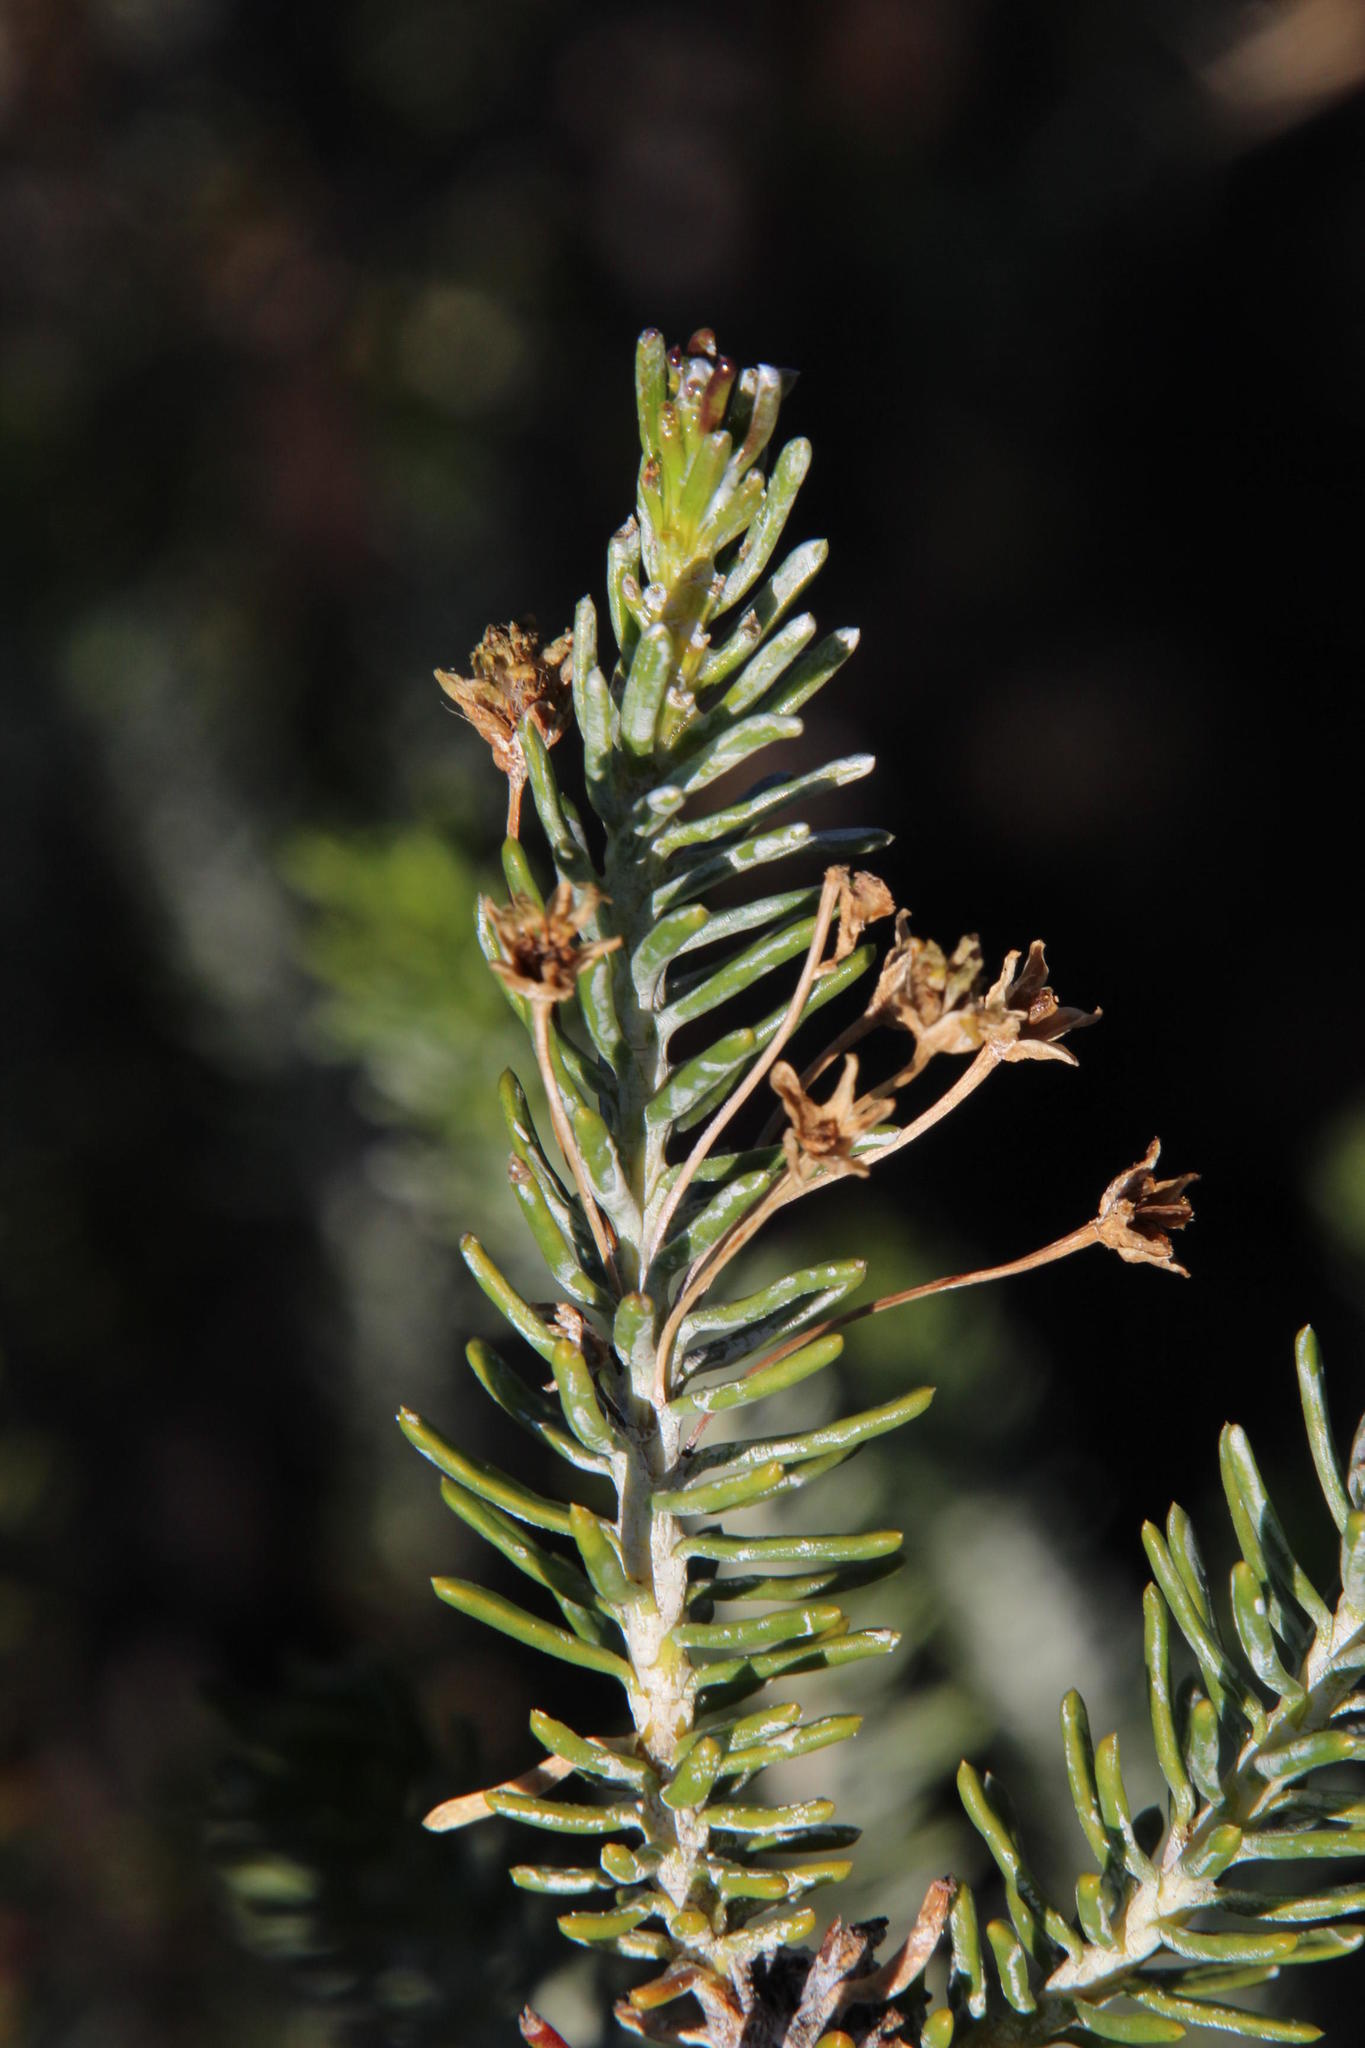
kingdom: Plantae
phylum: Tracheophyta
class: Magnoliopsida
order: Asterales
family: Asteraceae
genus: Euryops
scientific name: Euryops nodosus
